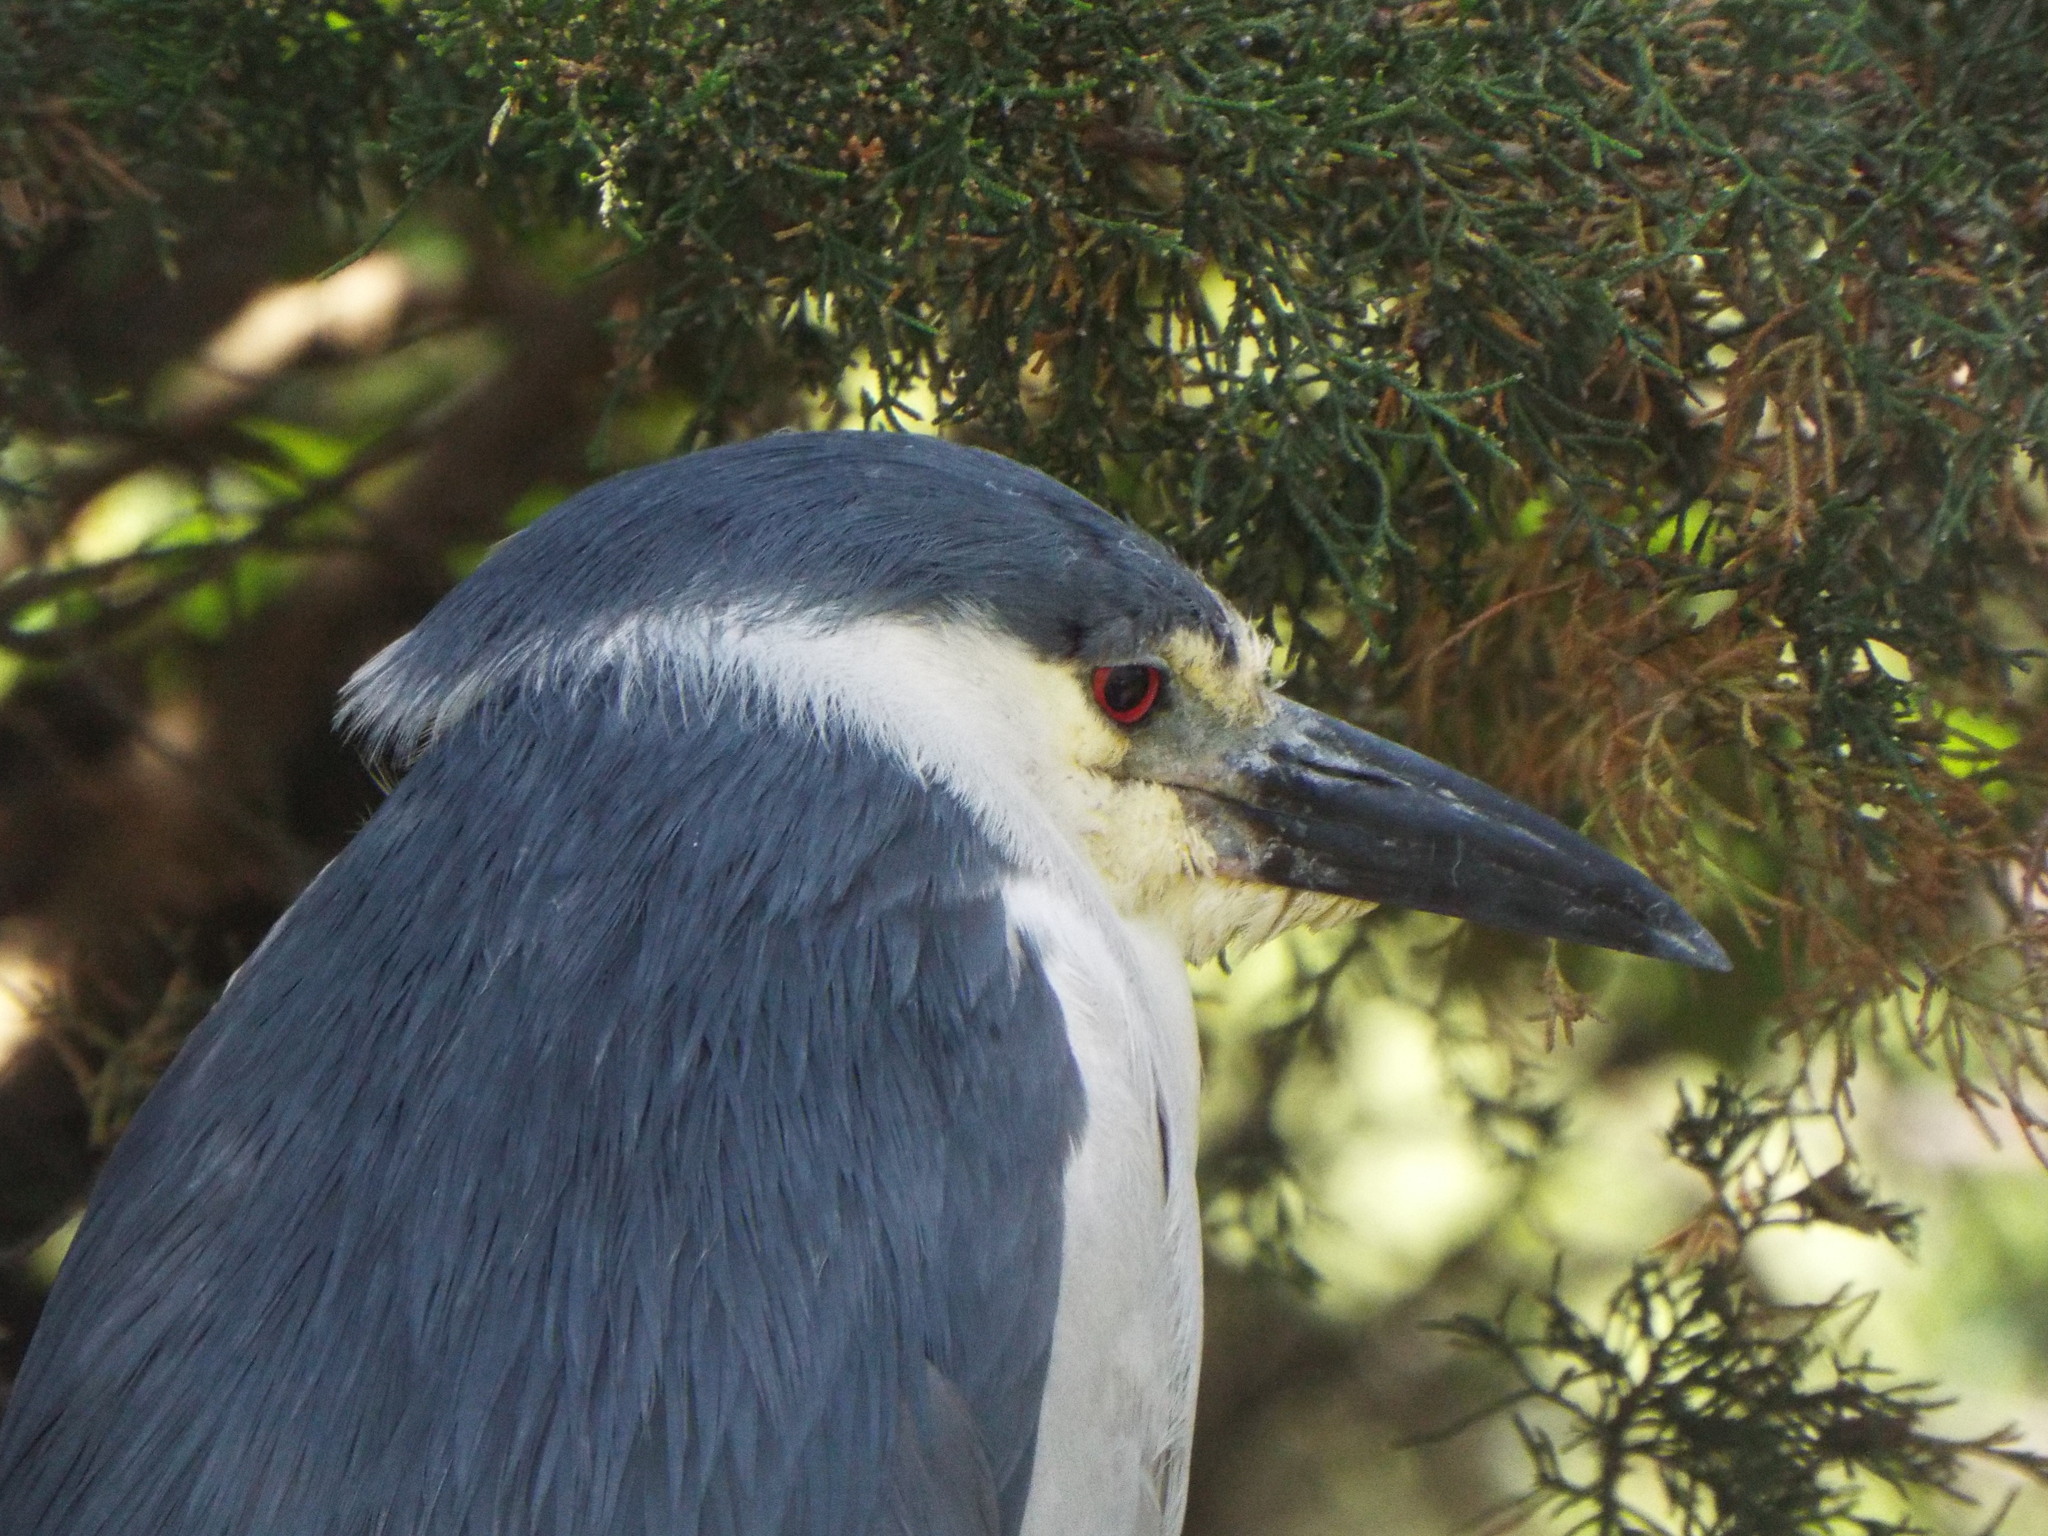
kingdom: Animalia
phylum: Chordata
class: Aves
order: Pelecaniformes
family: Ardeidae
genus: Nycticorax
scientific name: Nycticorax nycticorax
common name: Black-crowned night heron
